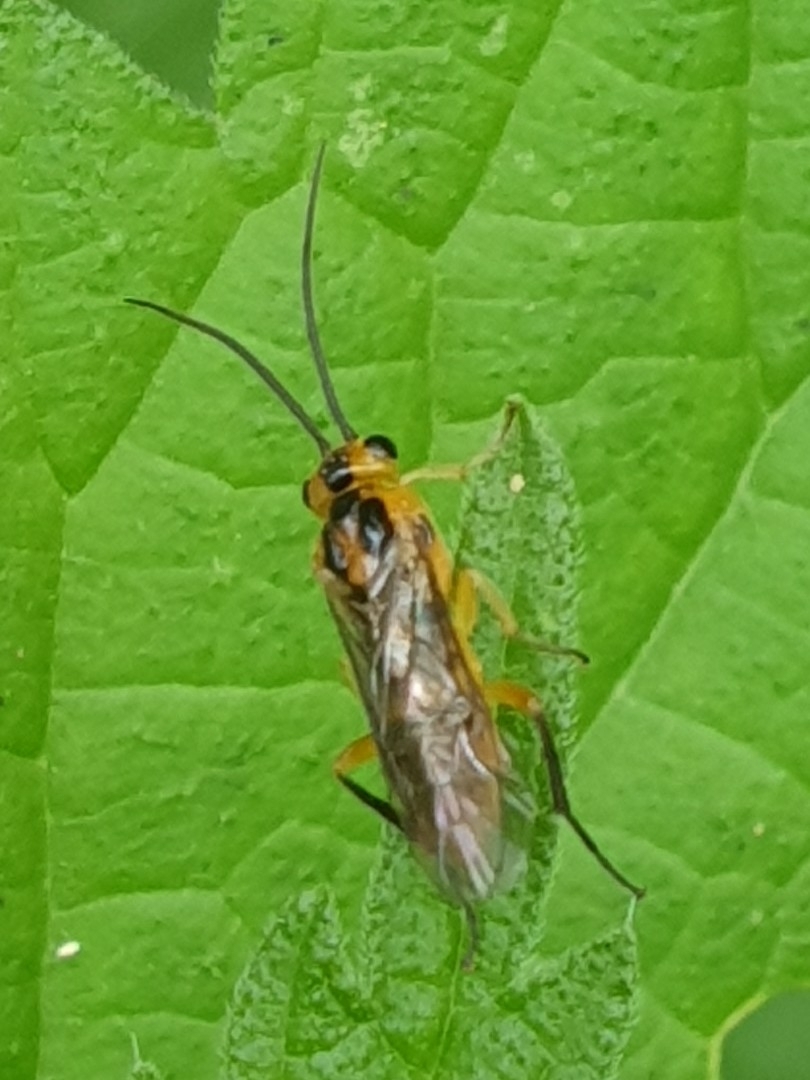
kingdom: Animalia
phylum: Arthropoda
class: Insecta
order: Hymenoptera
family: Tenthredinidae
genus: Euura
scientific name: Euura tibialis
